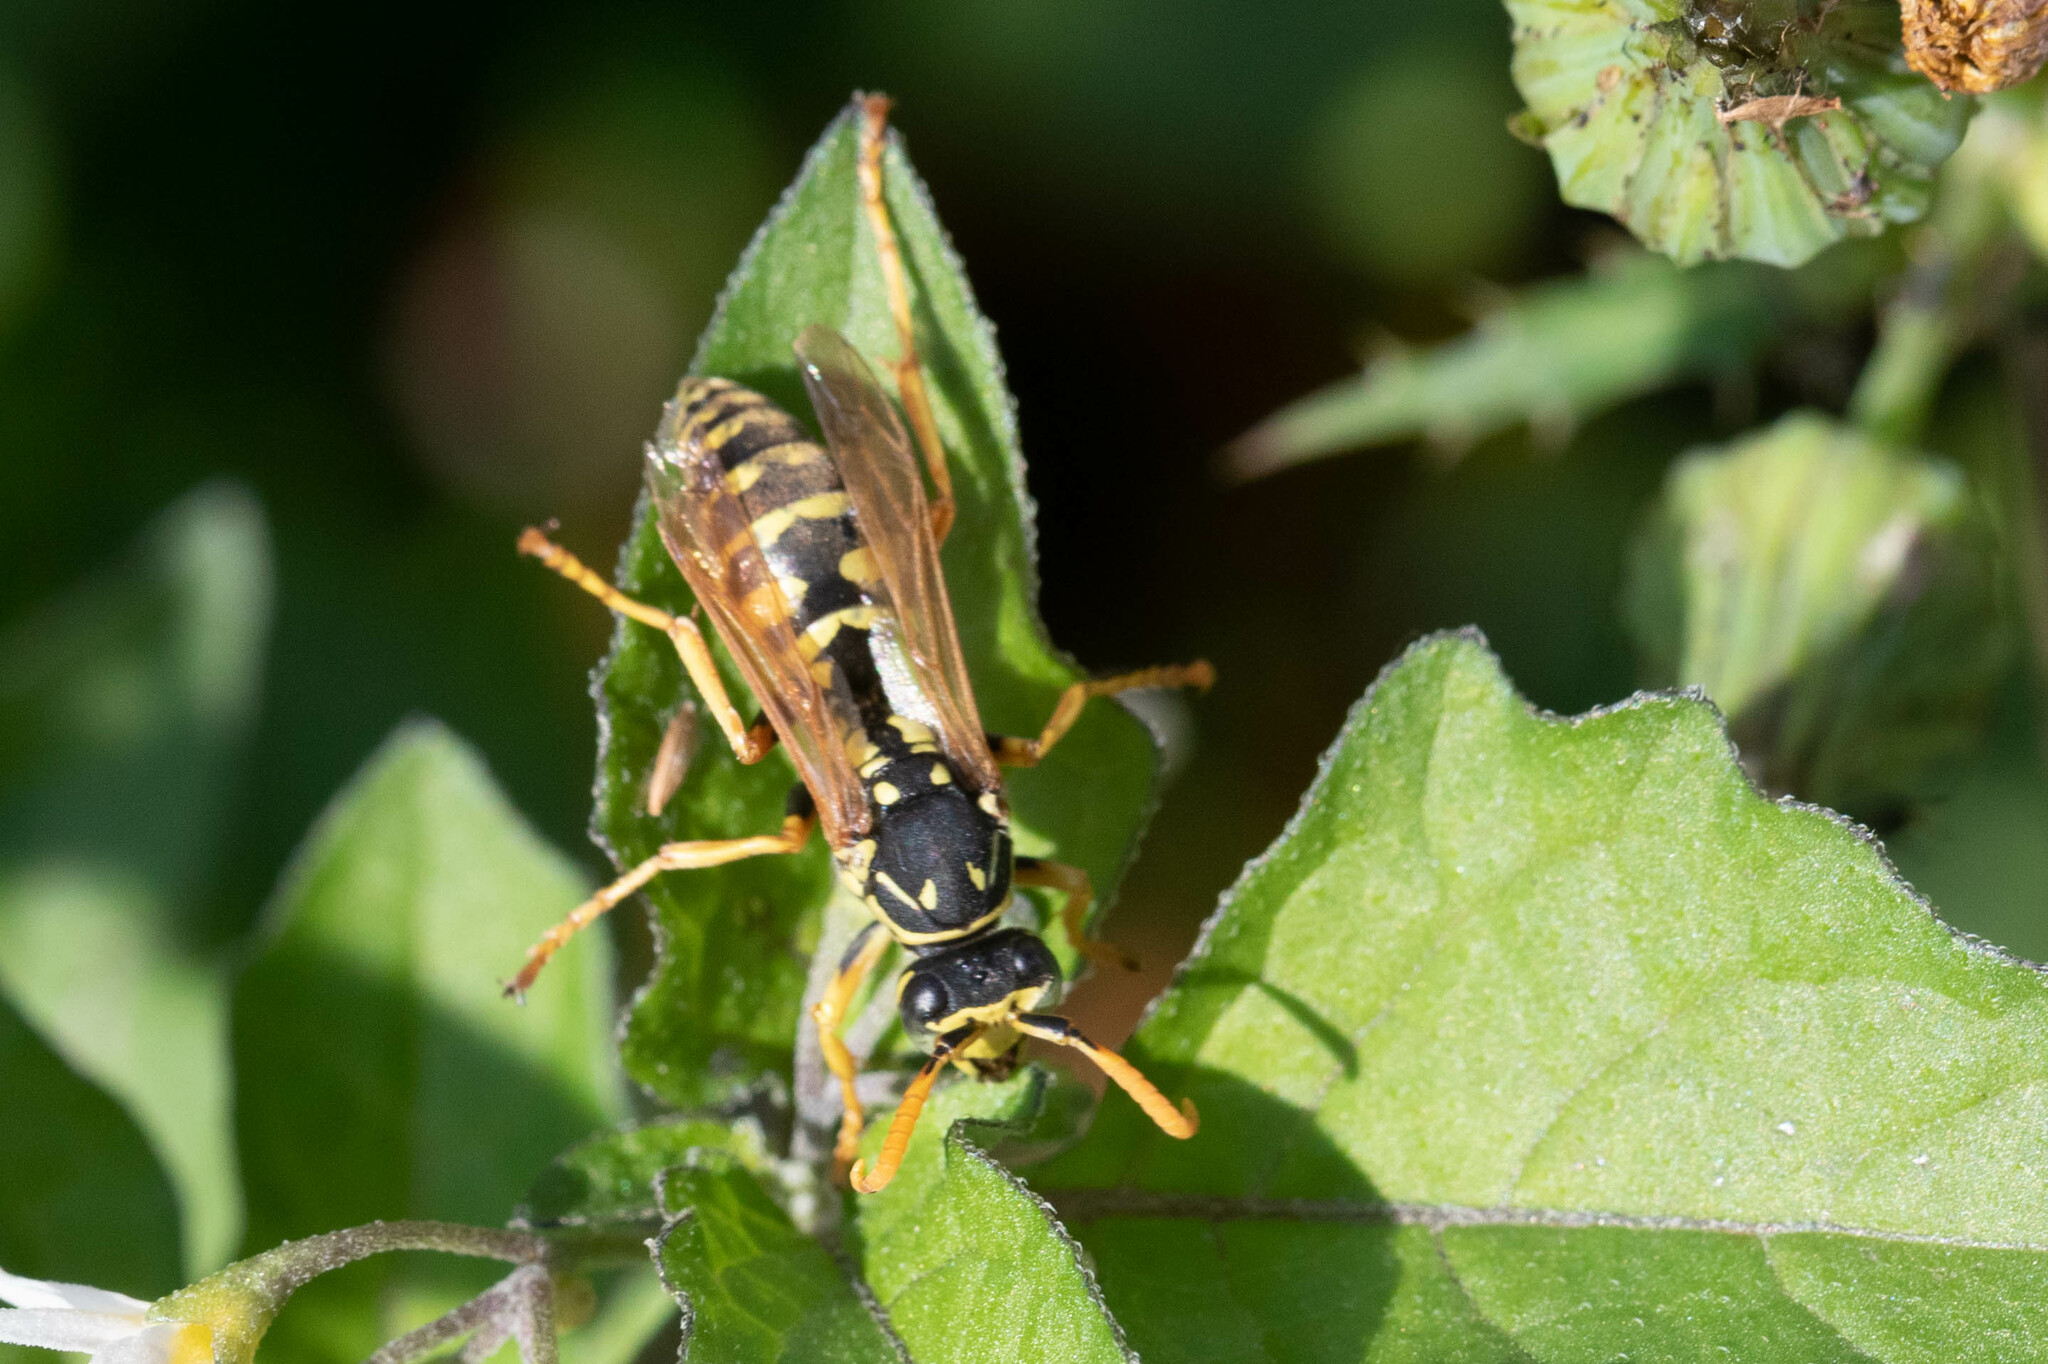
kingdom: Animalia
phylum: Arthropoda
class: Insecta
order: Hymenoptera
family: Eumenidae
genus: Polistes
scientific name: Polistes dominula
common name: Paper wasp
